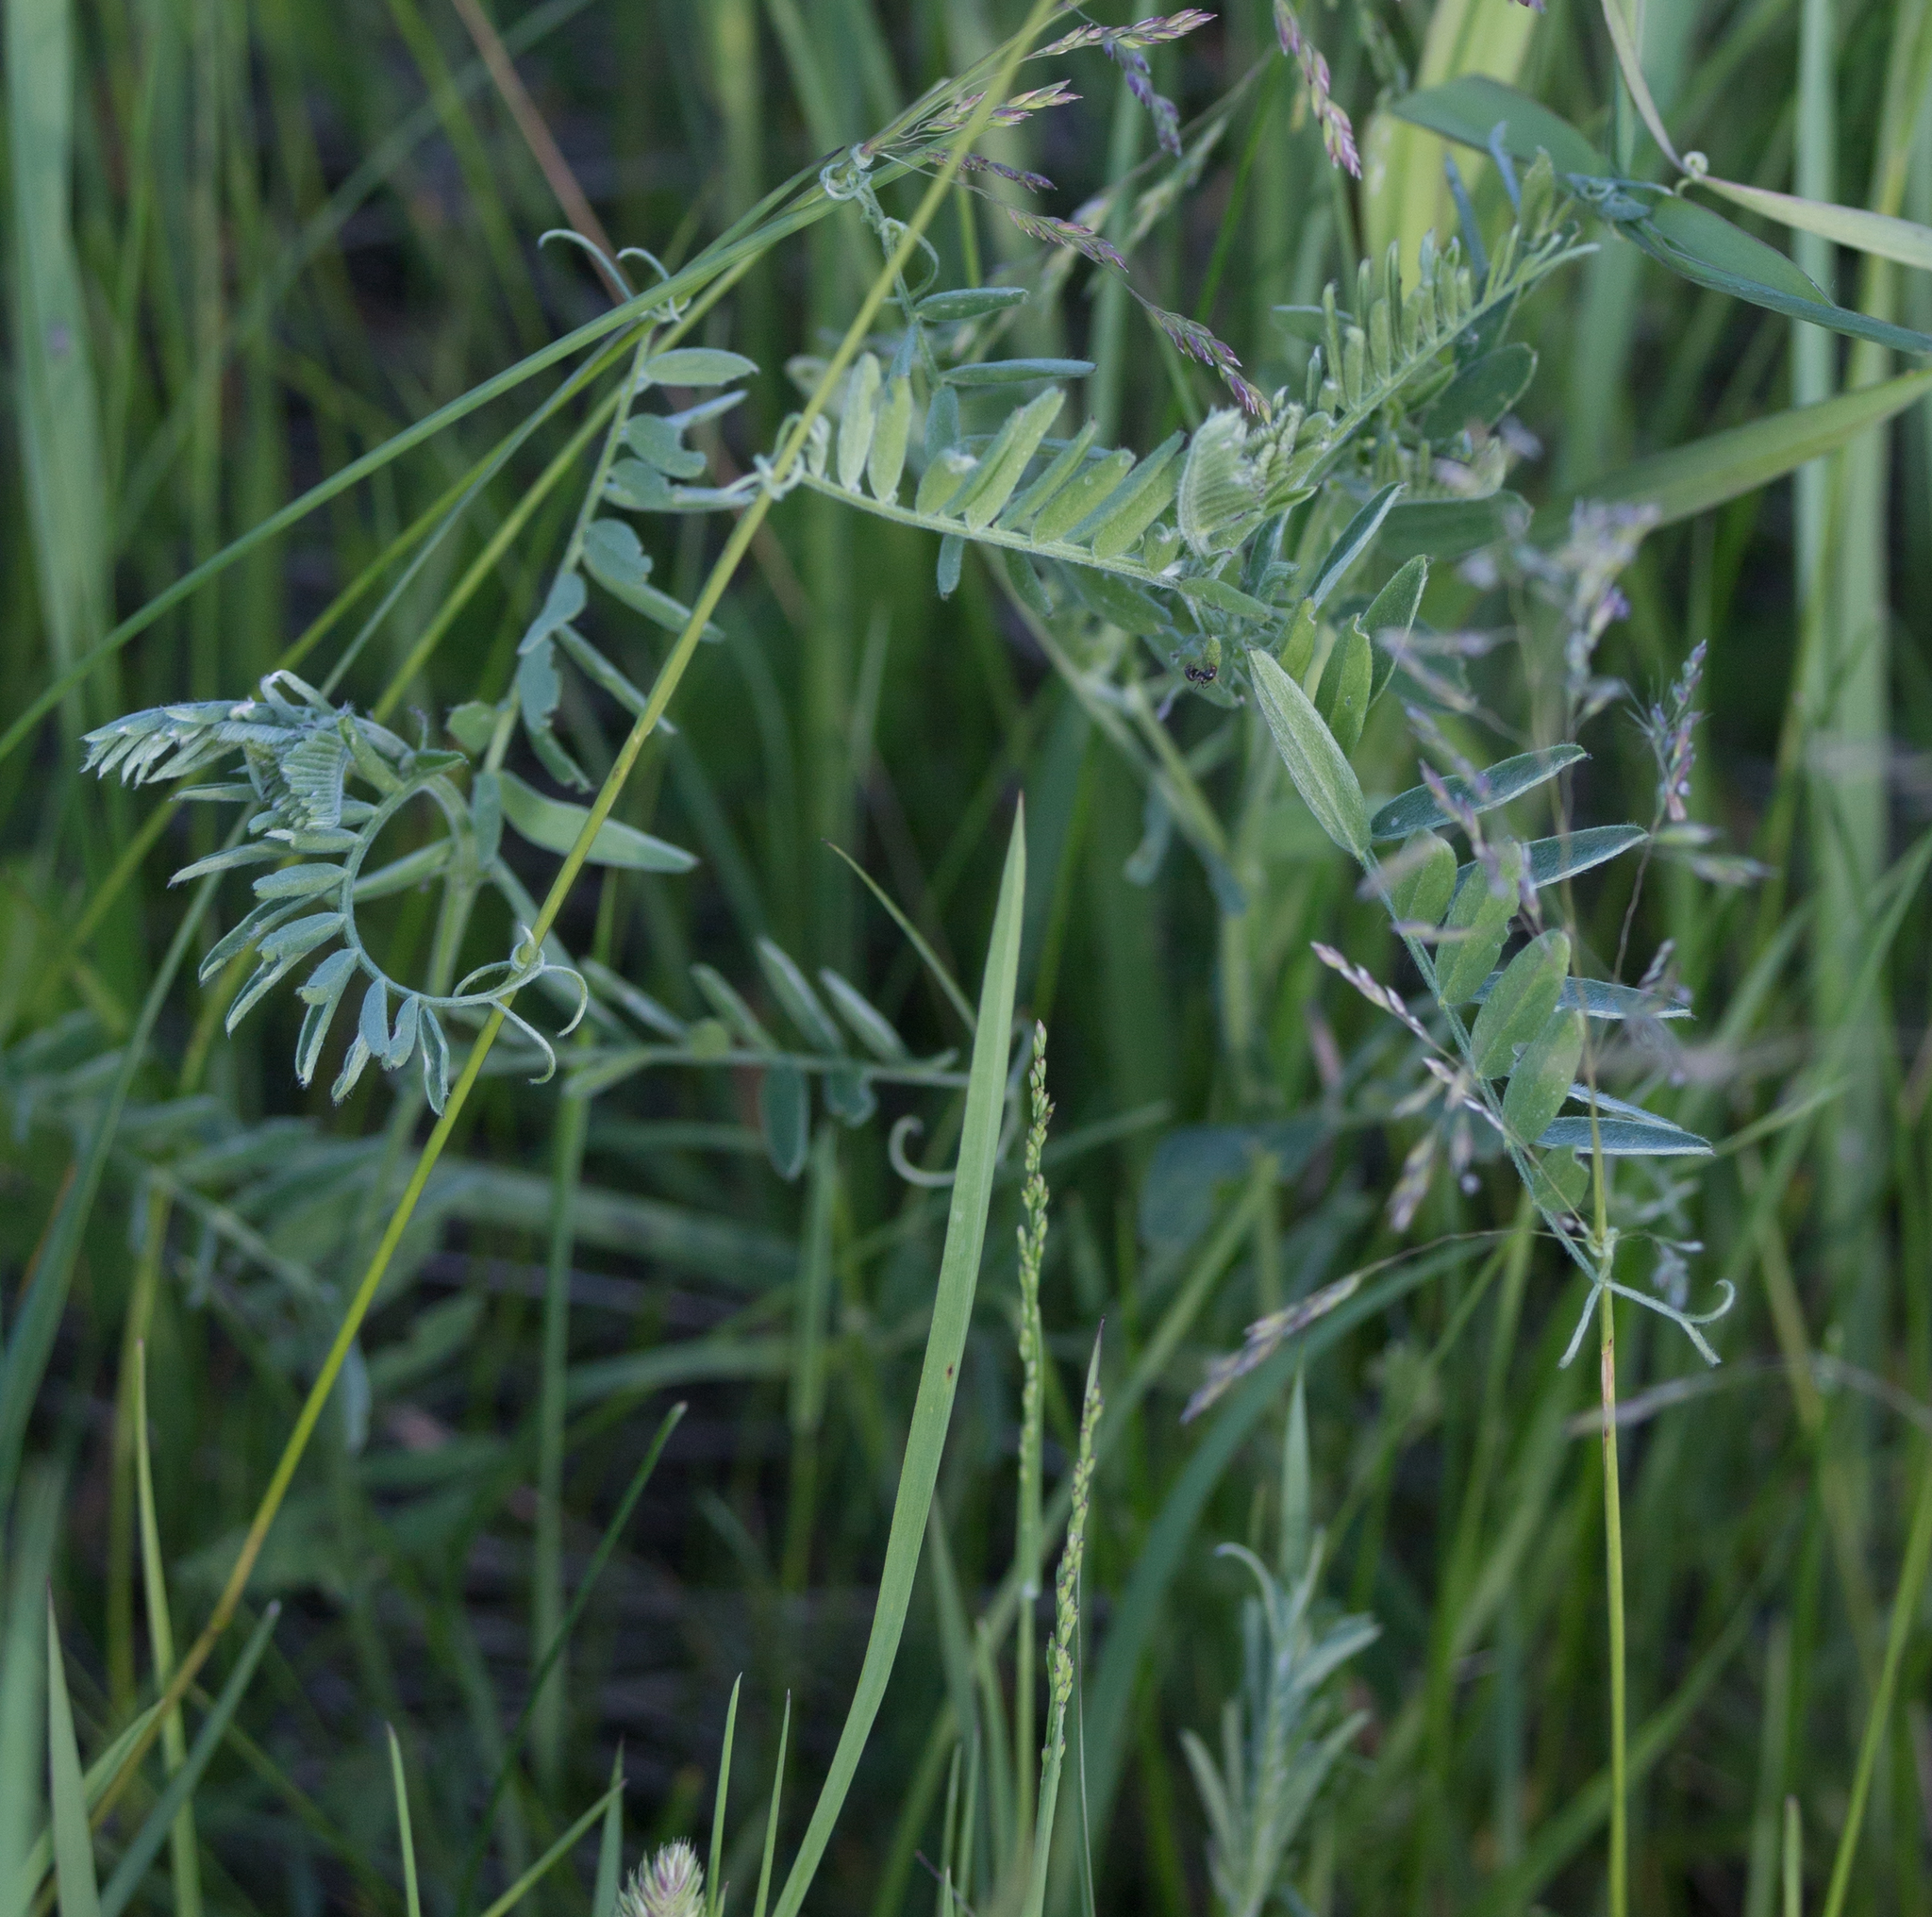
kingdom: Plantae
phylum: Tracheophyta
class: Magnoliopsida
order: Fabales
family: Fabaceae
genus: Vicia
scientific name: Vicia cracca
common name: Bird vetch
